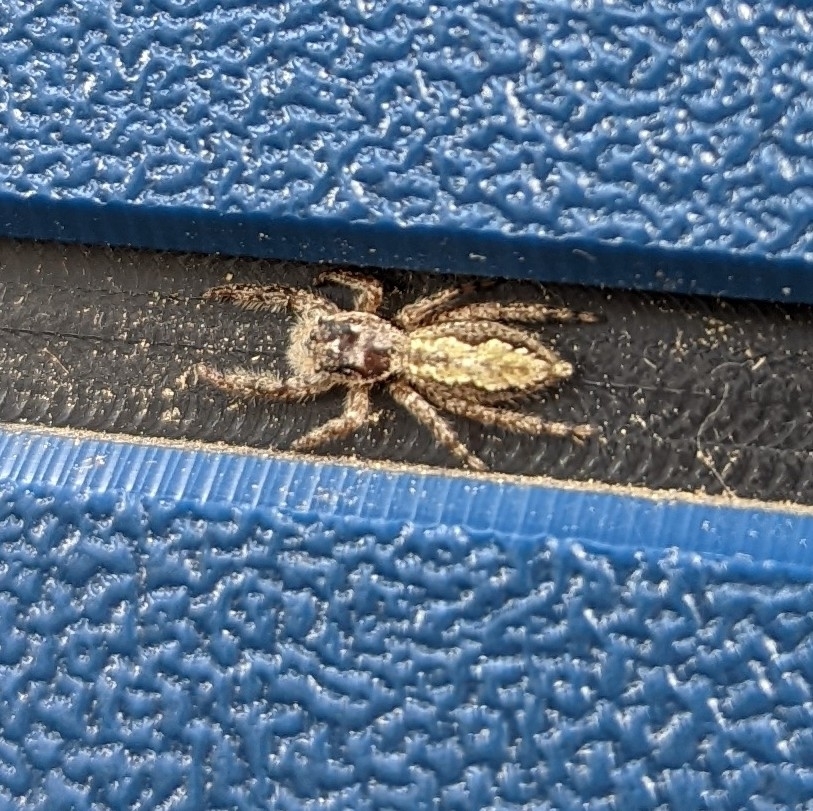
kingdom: Animalia
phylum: Arthropoda
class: Arachnida
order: Araneae
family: Salticidae
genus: Platycryptus
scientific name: Platycryptus undatus
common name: Tan jumping spider
